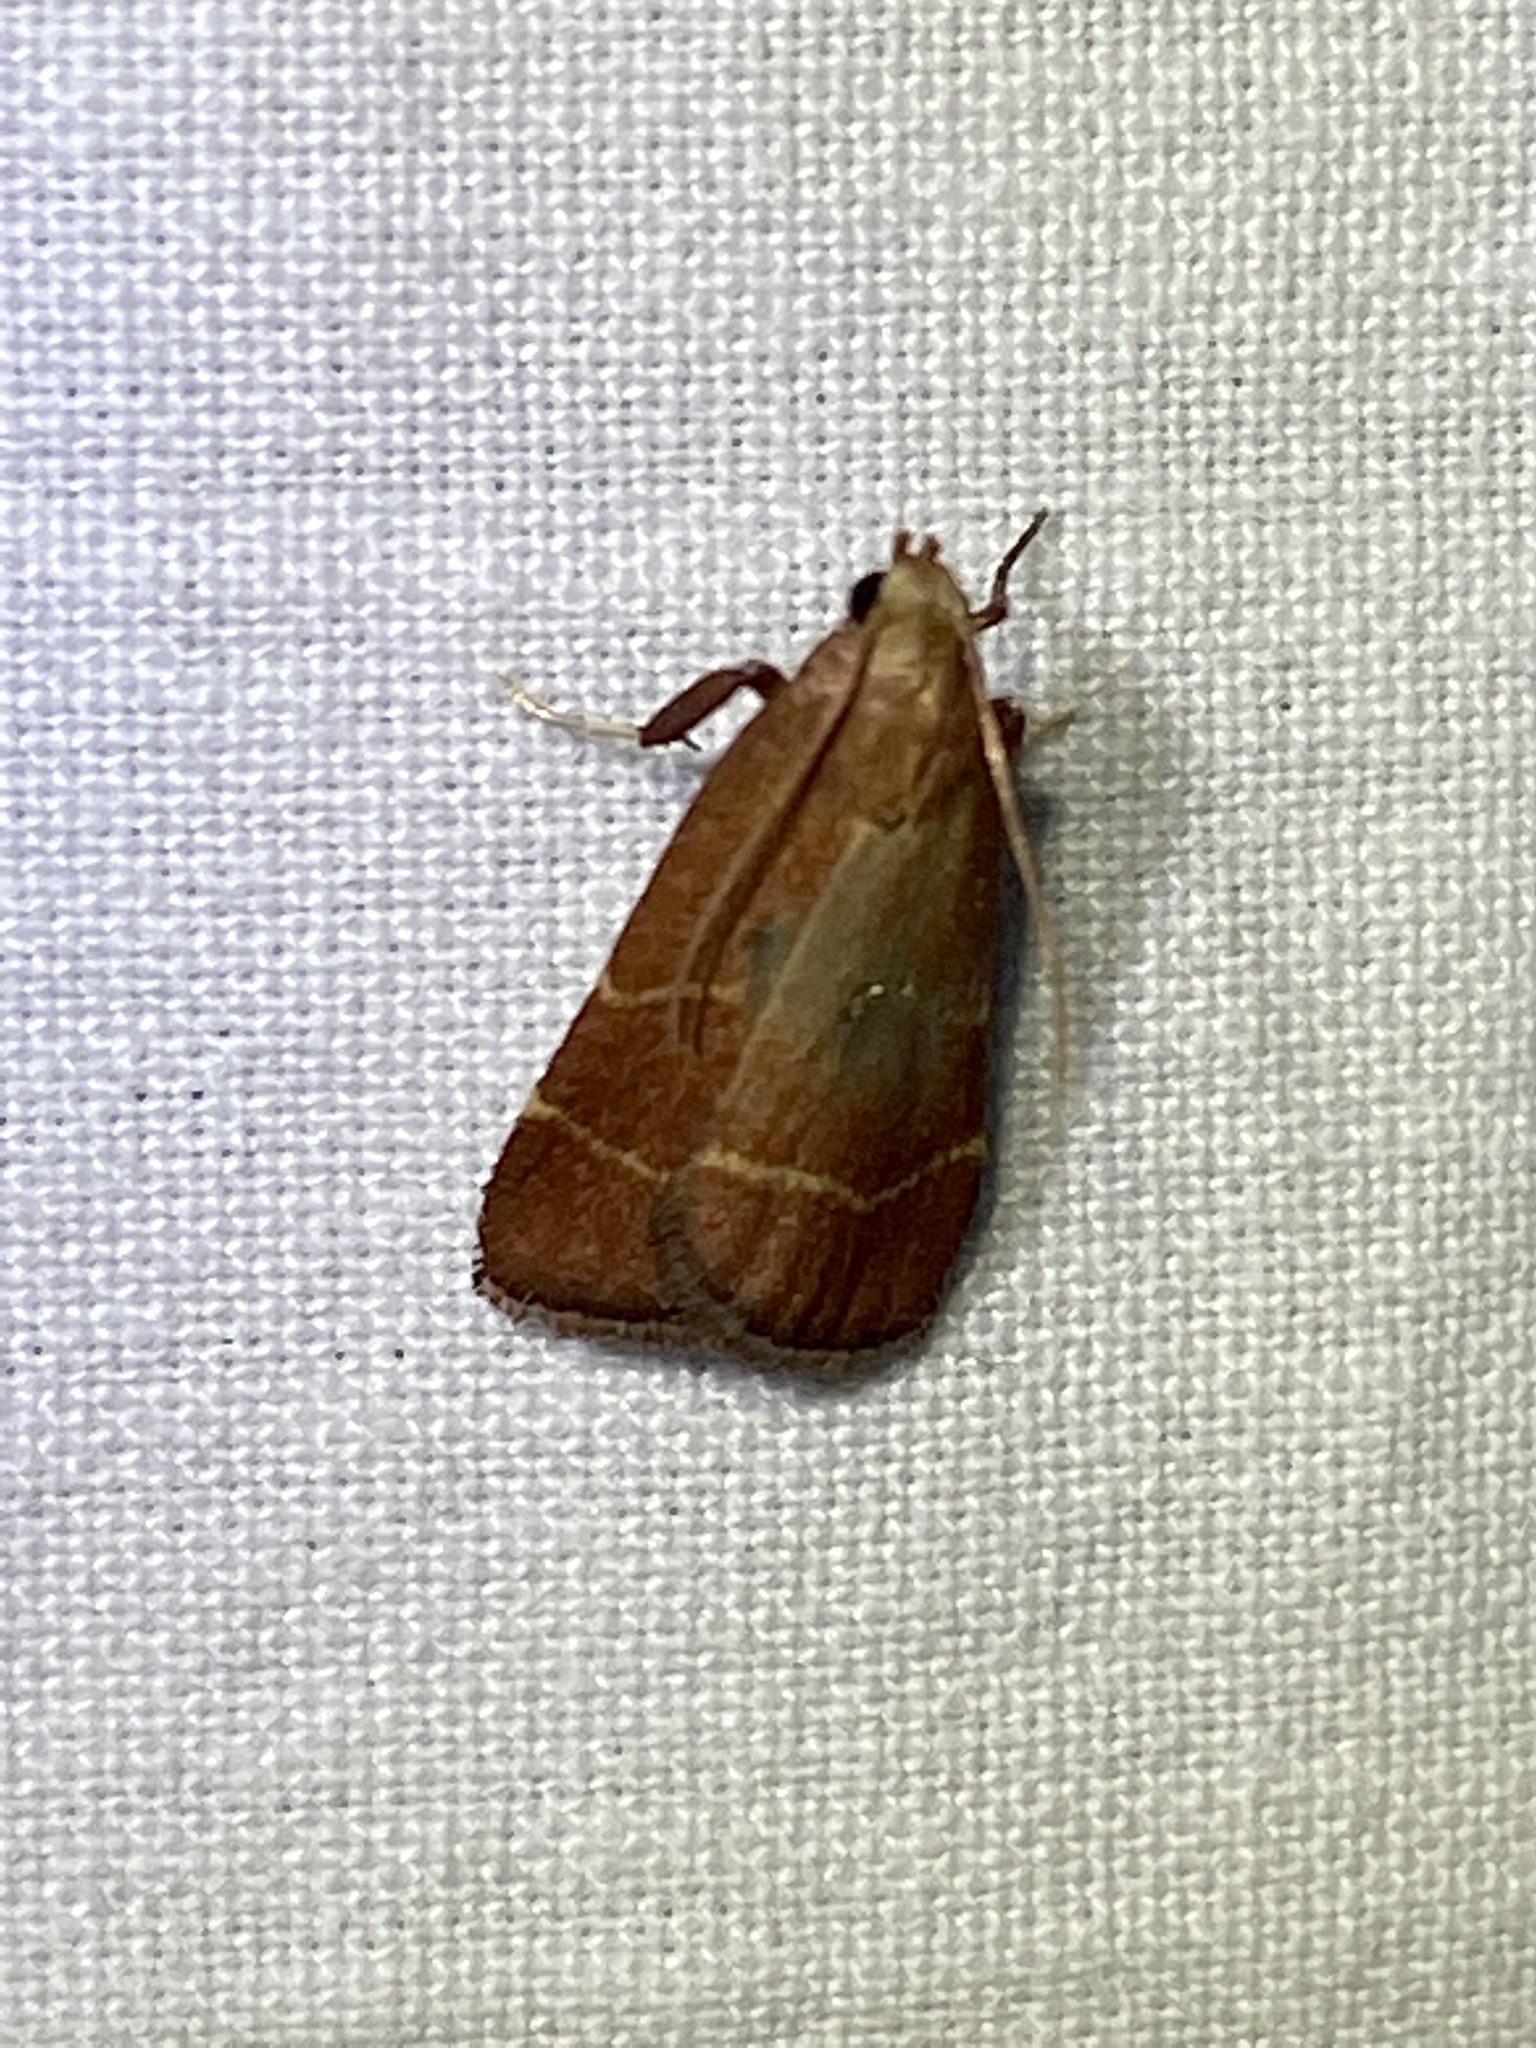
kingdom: Animalia
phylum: Arthropoda
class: Insecta
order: Lepidoptera
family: Pyralidae
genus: Arta
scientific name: Arta statalis
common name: Posturing arta moth
